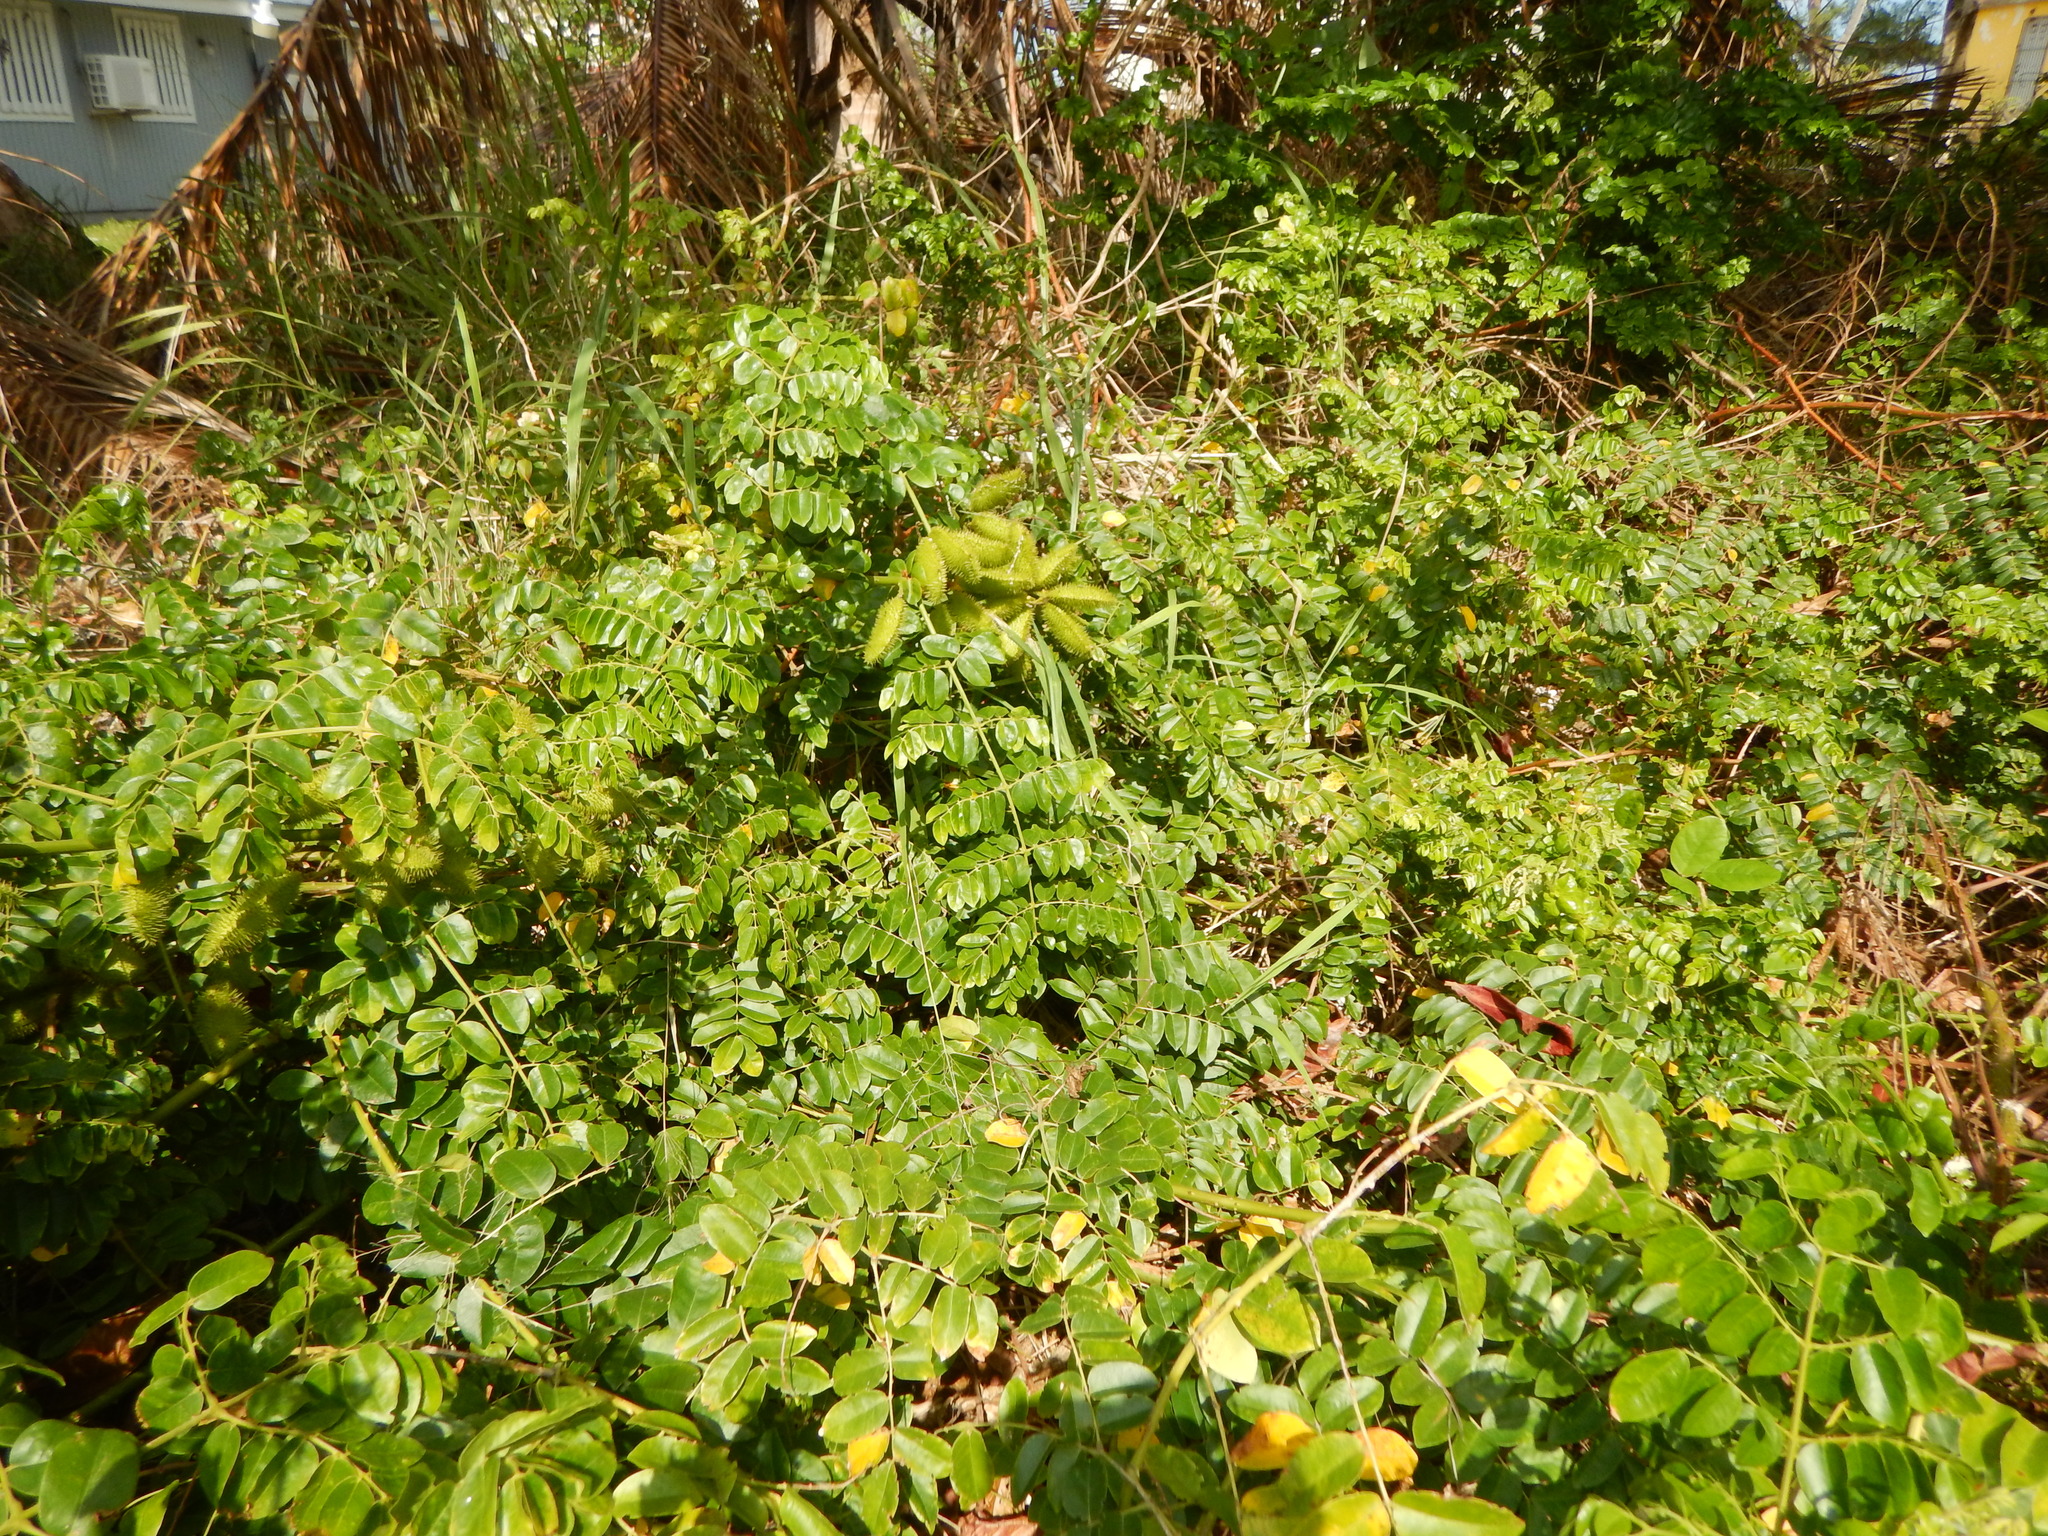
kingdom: Plantae
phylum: Tracheophyta
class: Magnoliopsida
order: Fabales
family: Fabaceae
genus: Guilandina
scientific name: Guilandina bonduc
